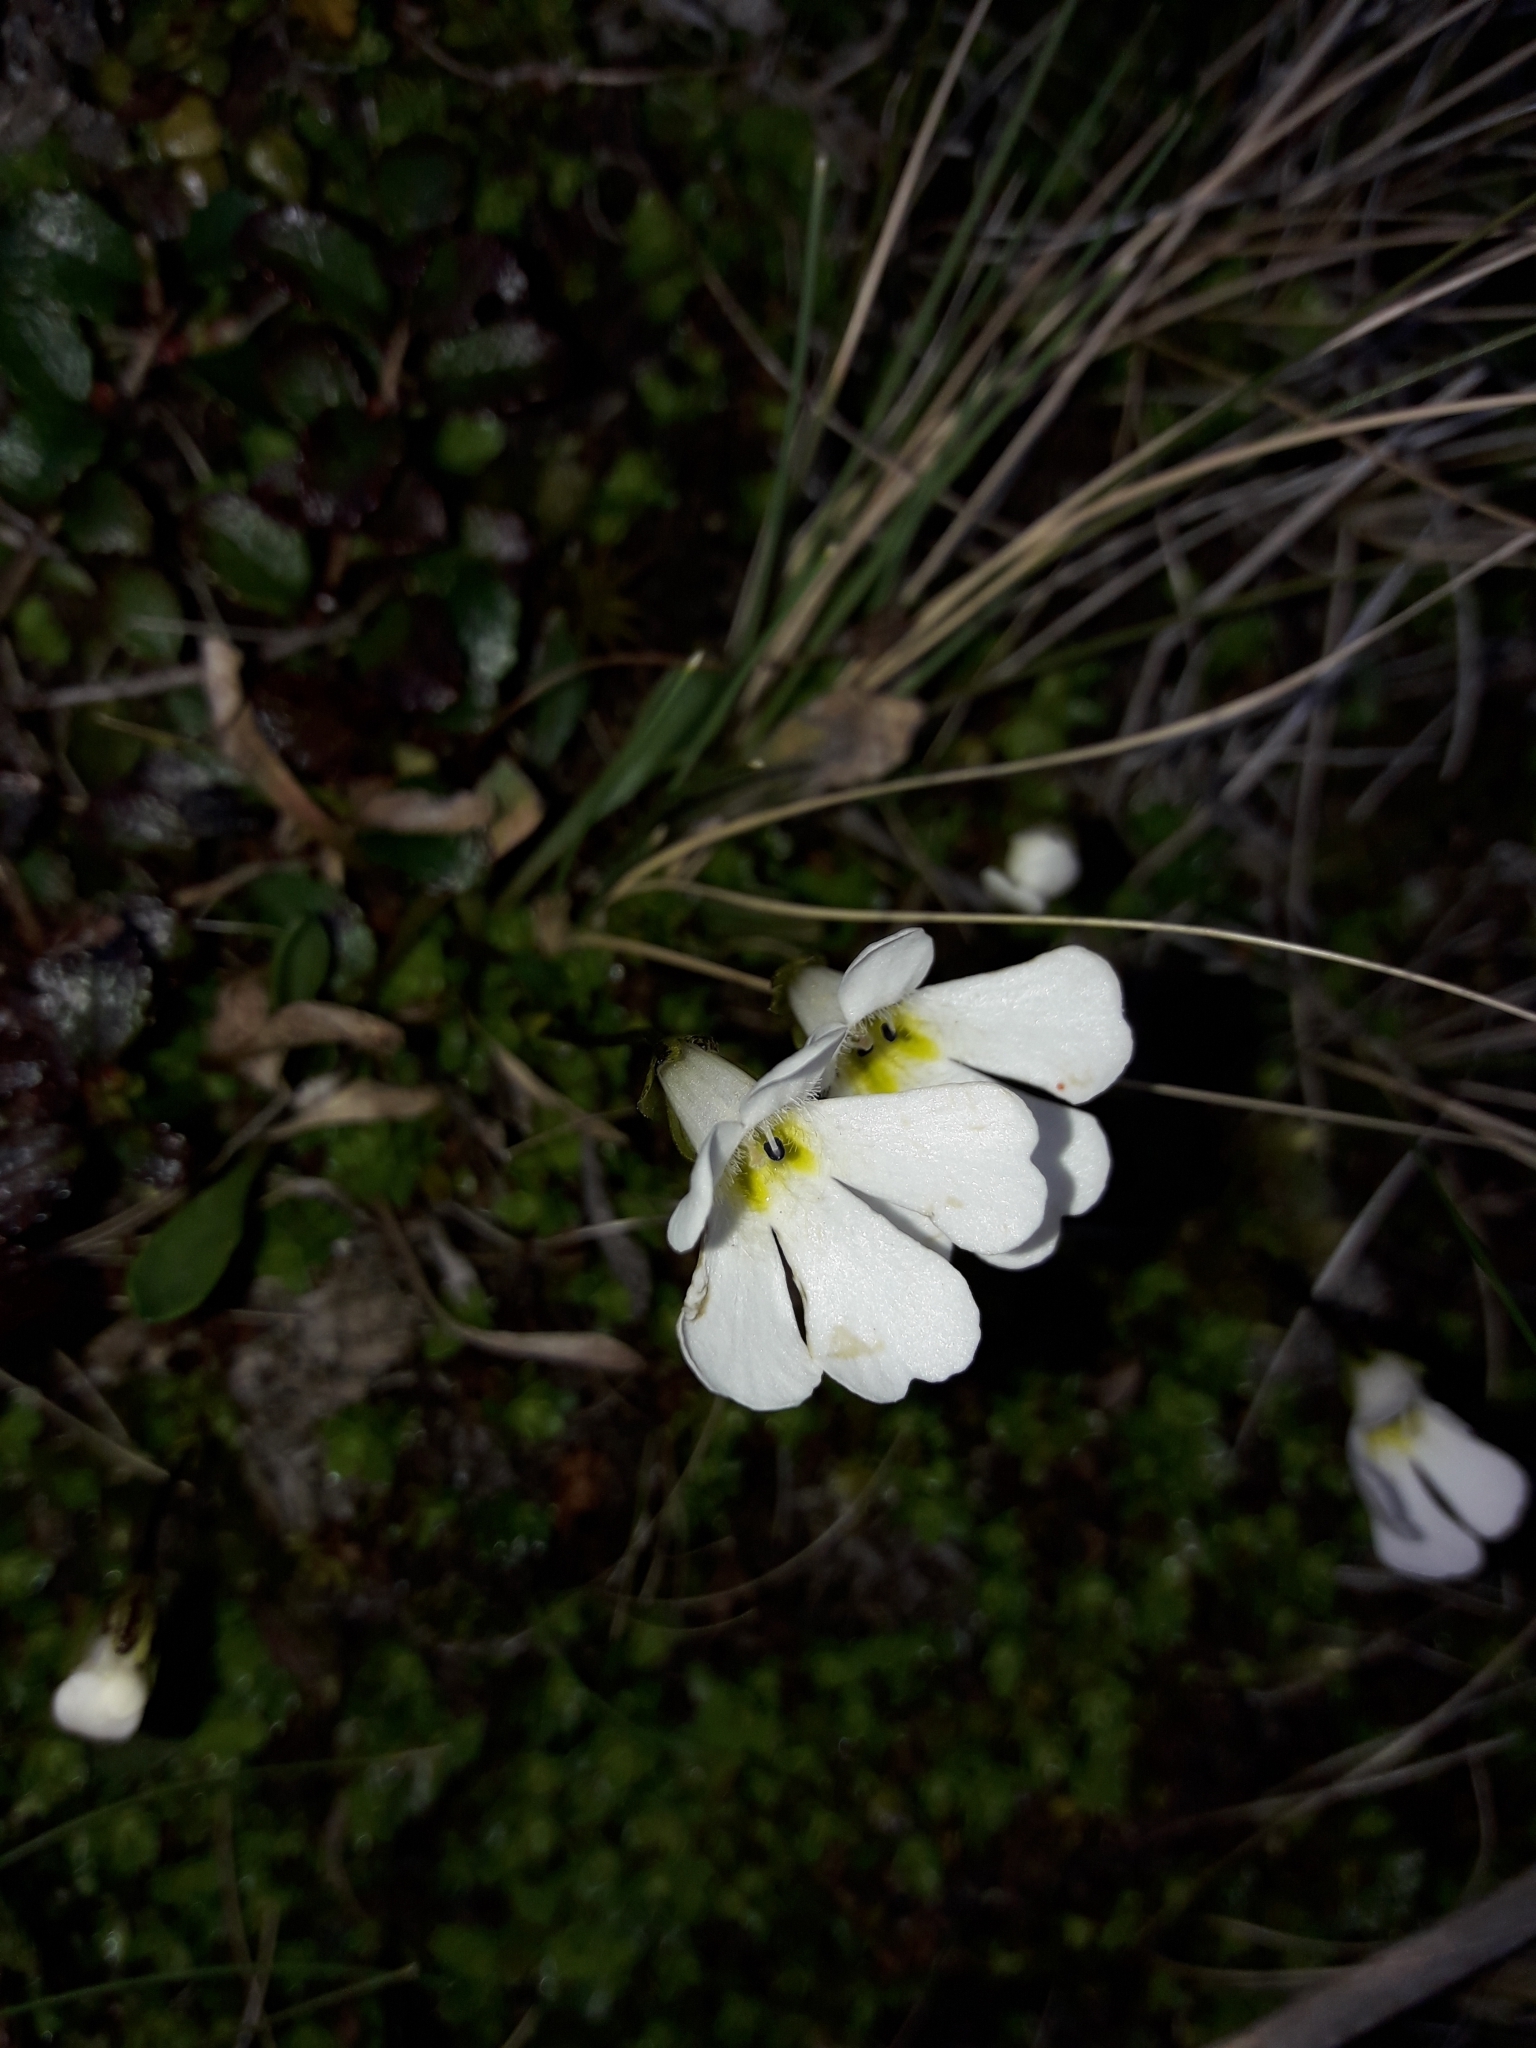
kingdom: Plantae
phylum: Tracheophyta
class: Magnoliopsida
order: Lamiales
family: Plantaginaceae
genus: Ourisia
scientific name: Ourisia caespitosa
